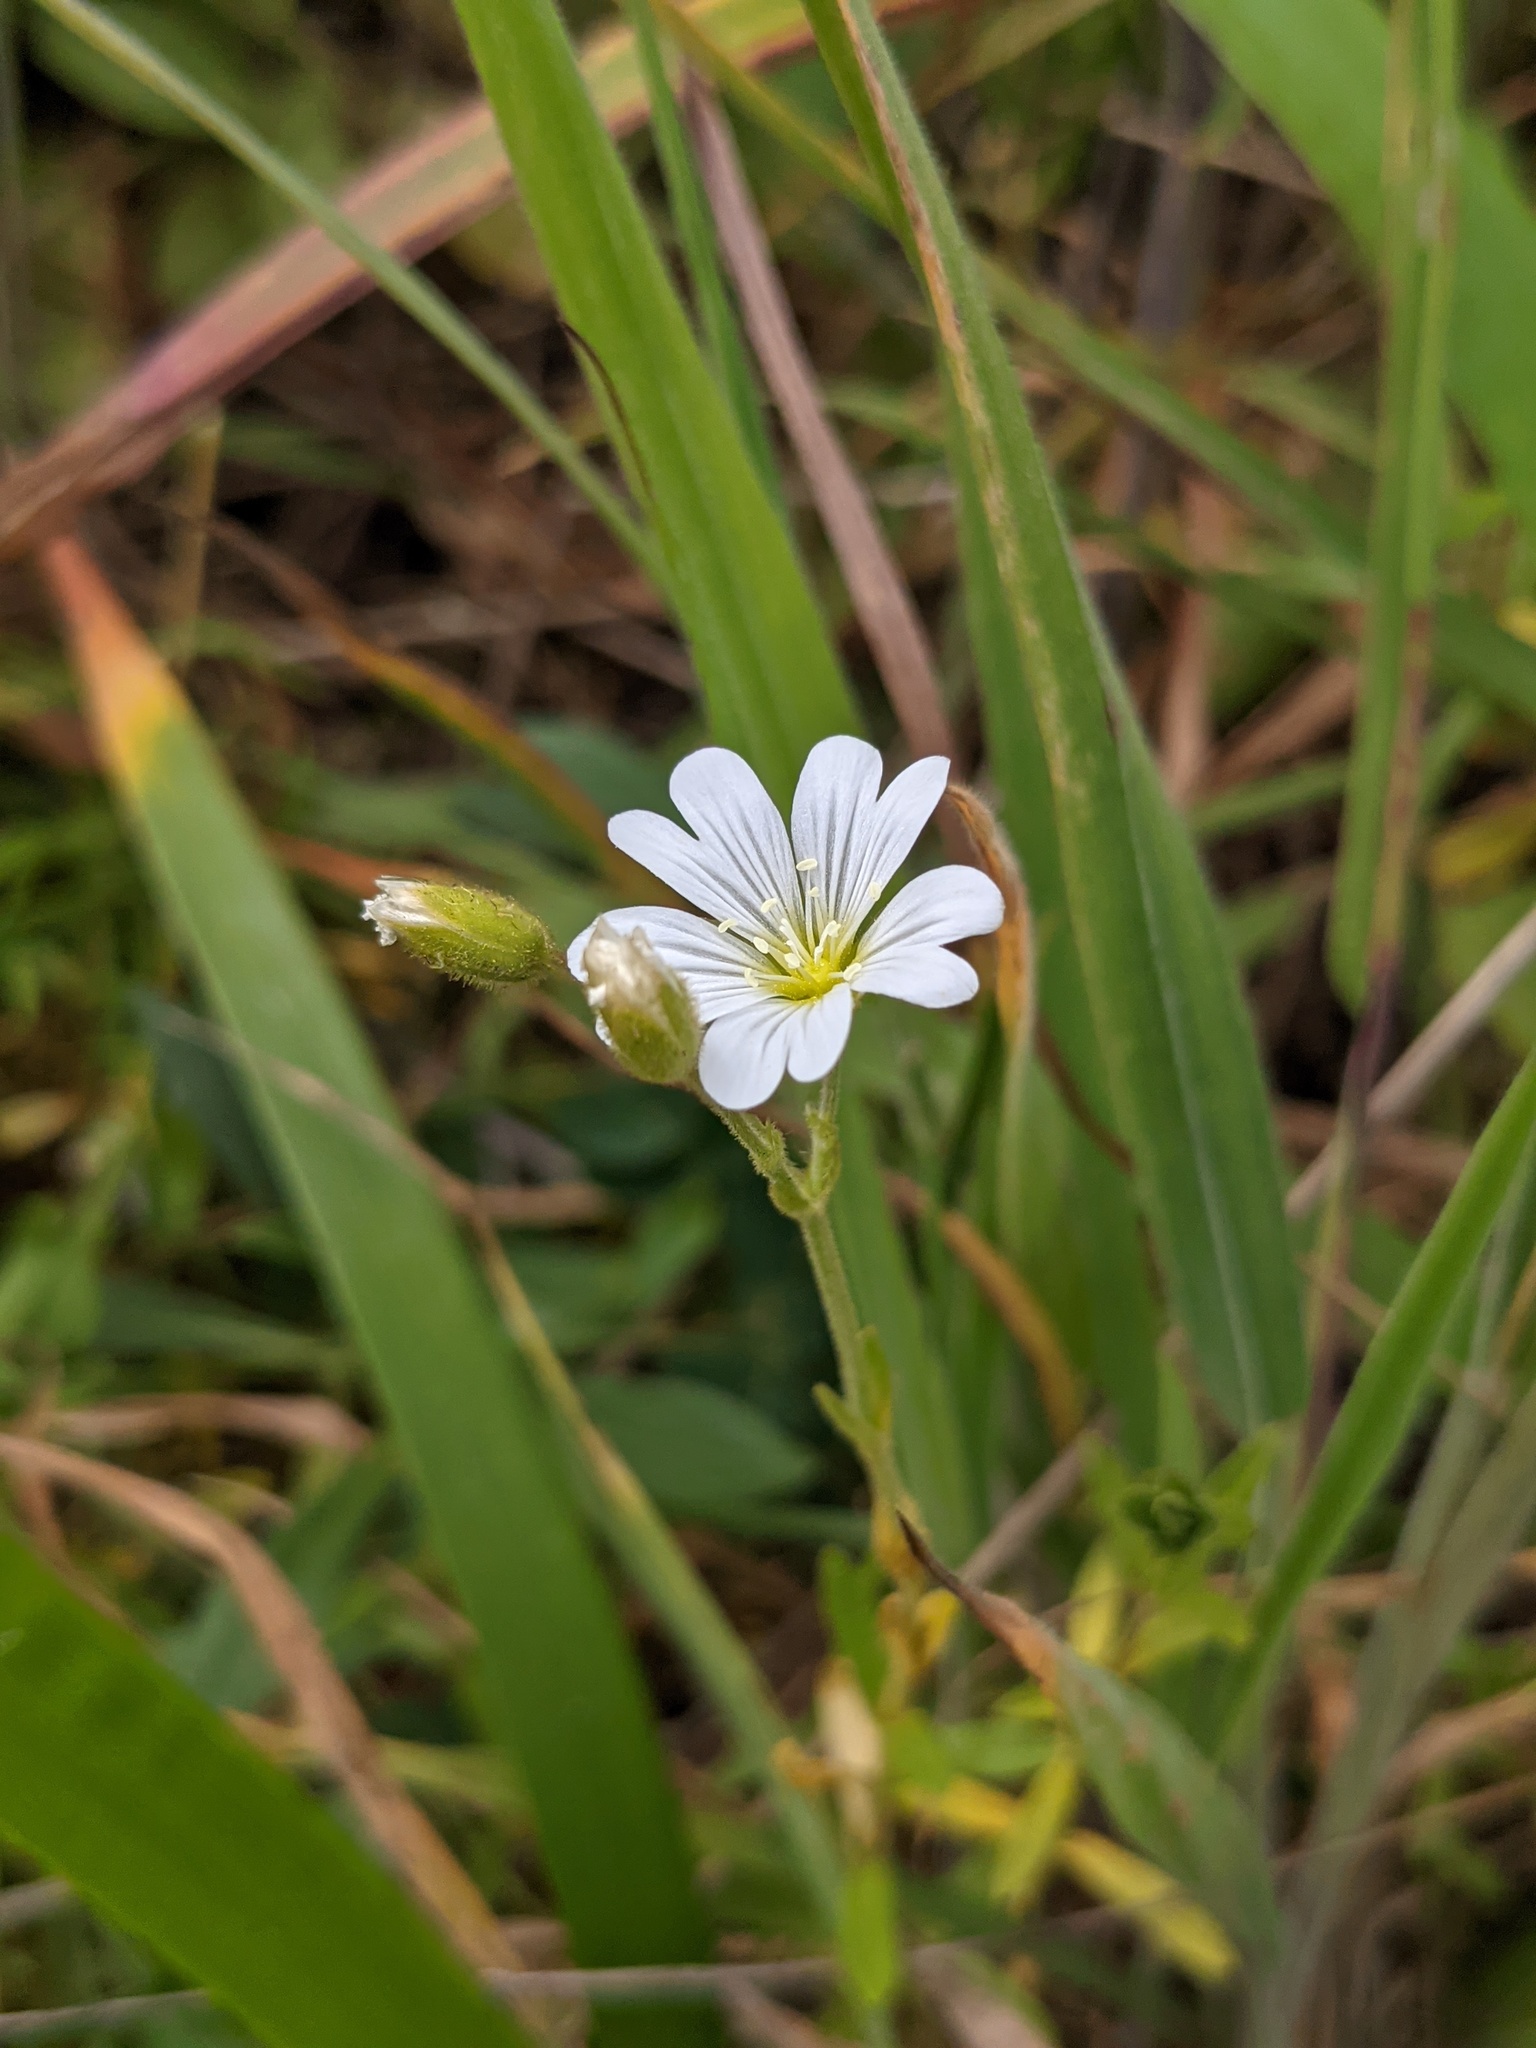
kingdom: Plantae
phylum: Tracheophyta
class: Magnoliopsida
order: Caryophyllales
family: Caryophyllaceae
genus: Cerastium
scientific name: Cerastium arvense
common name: Field mouse-ear
